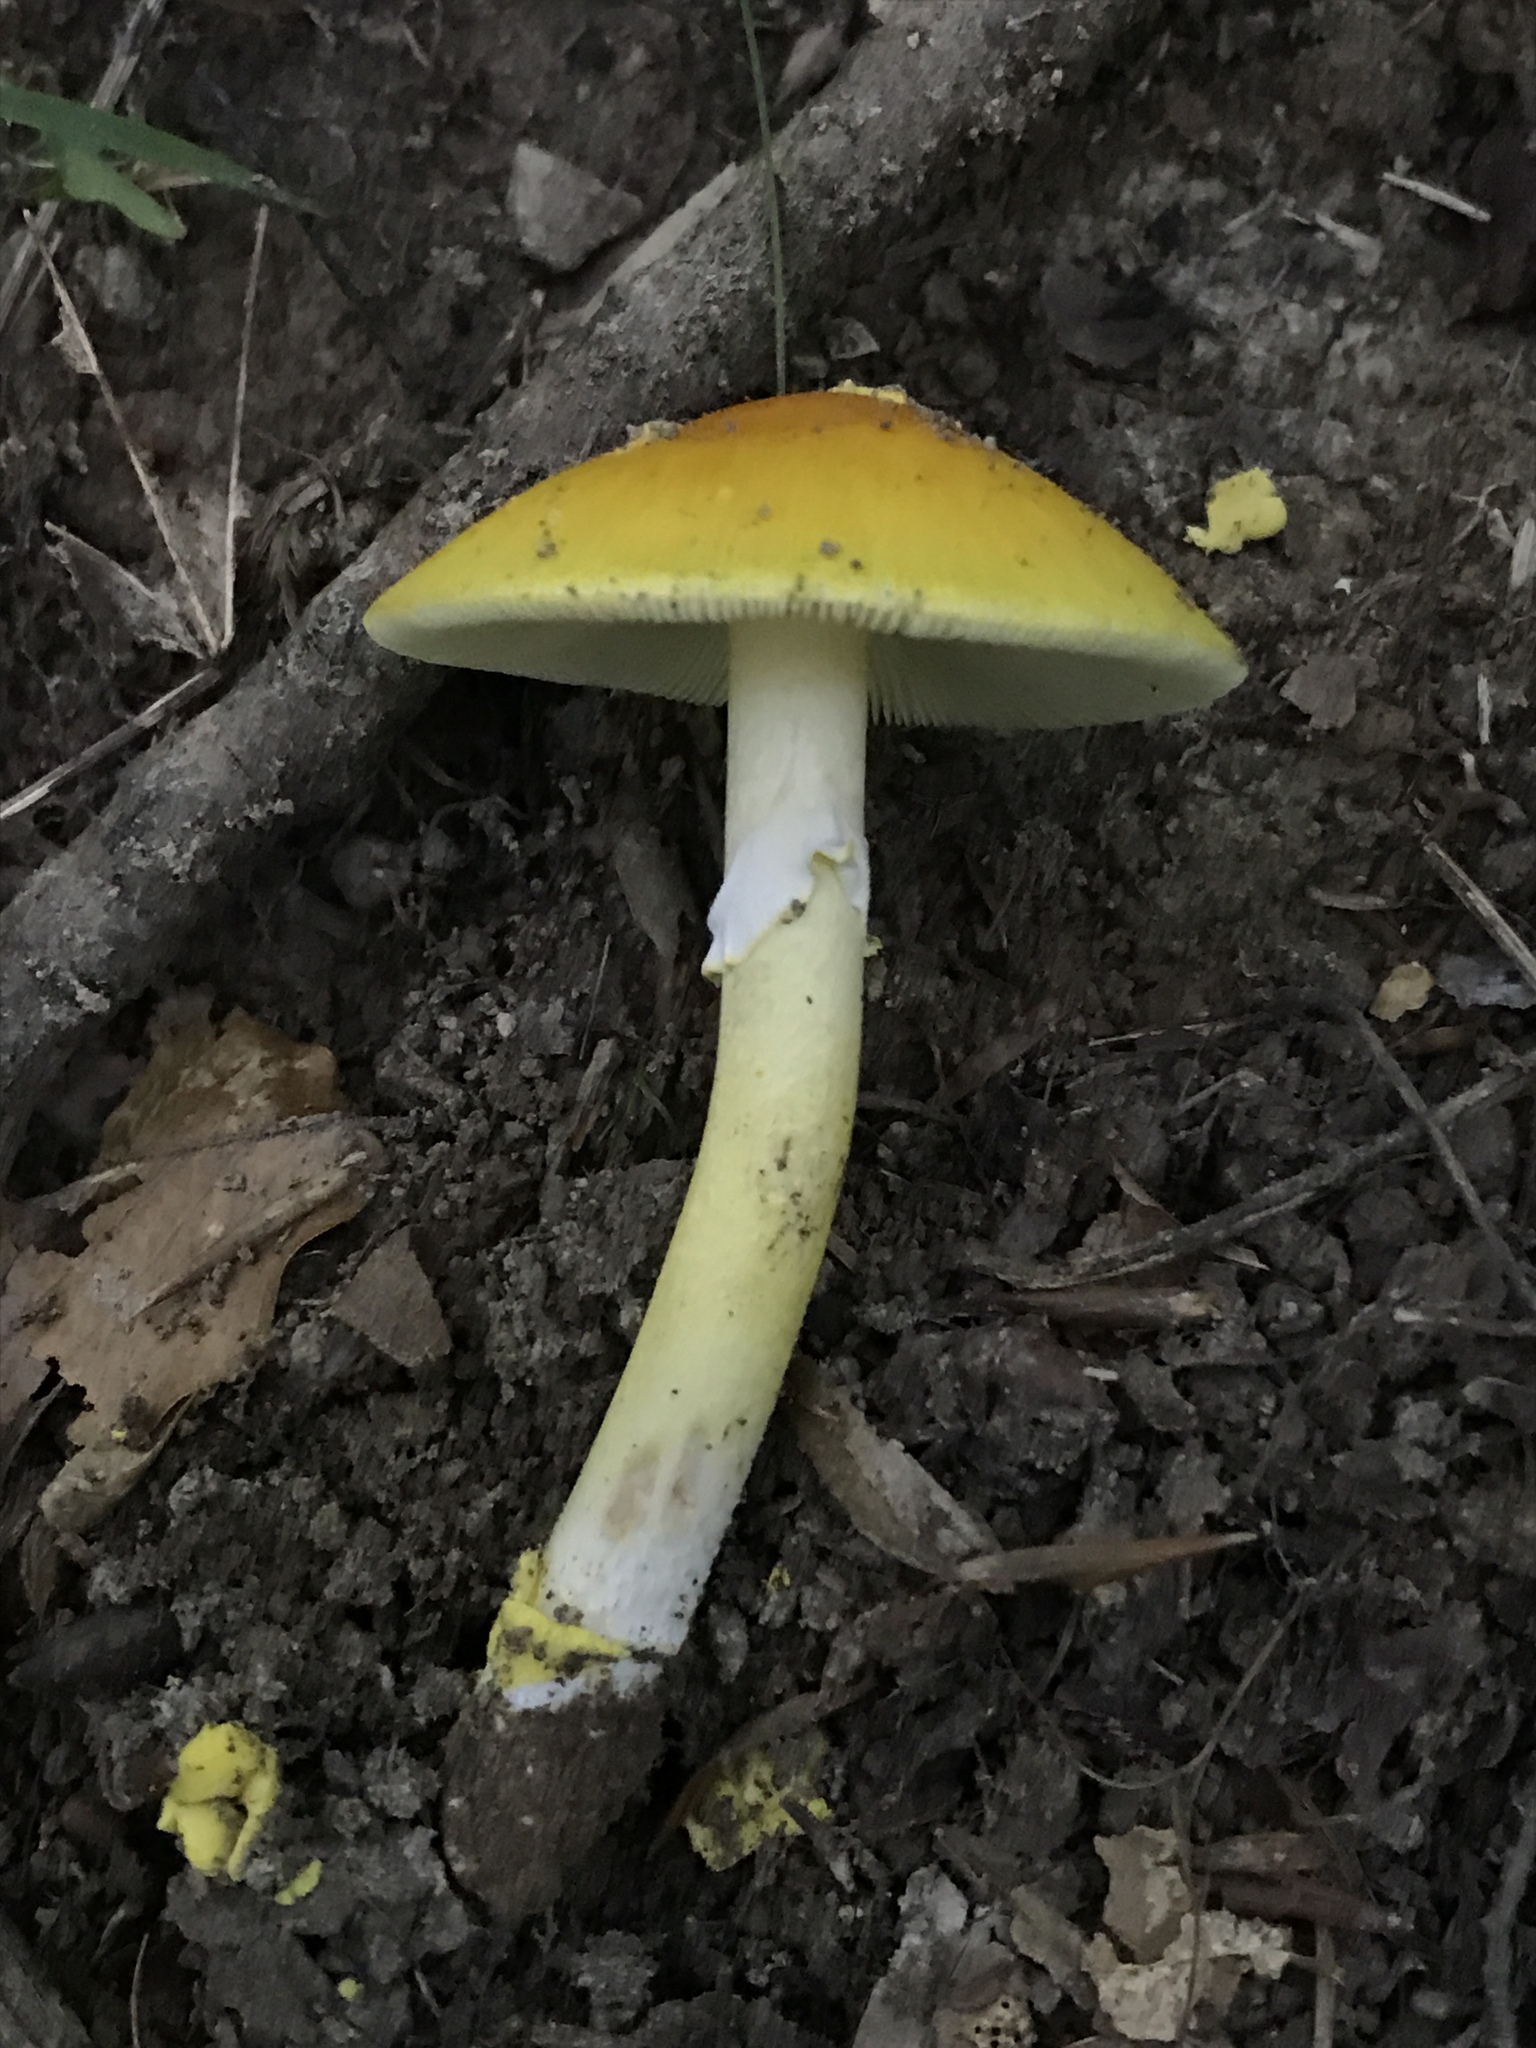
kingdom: Fungi
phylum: Basidiomycota
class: Agaricomycetes
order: Agaricales
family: Amanitaceae
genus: Amanita
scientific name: Amanita flavoconia
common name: Yellow patches
